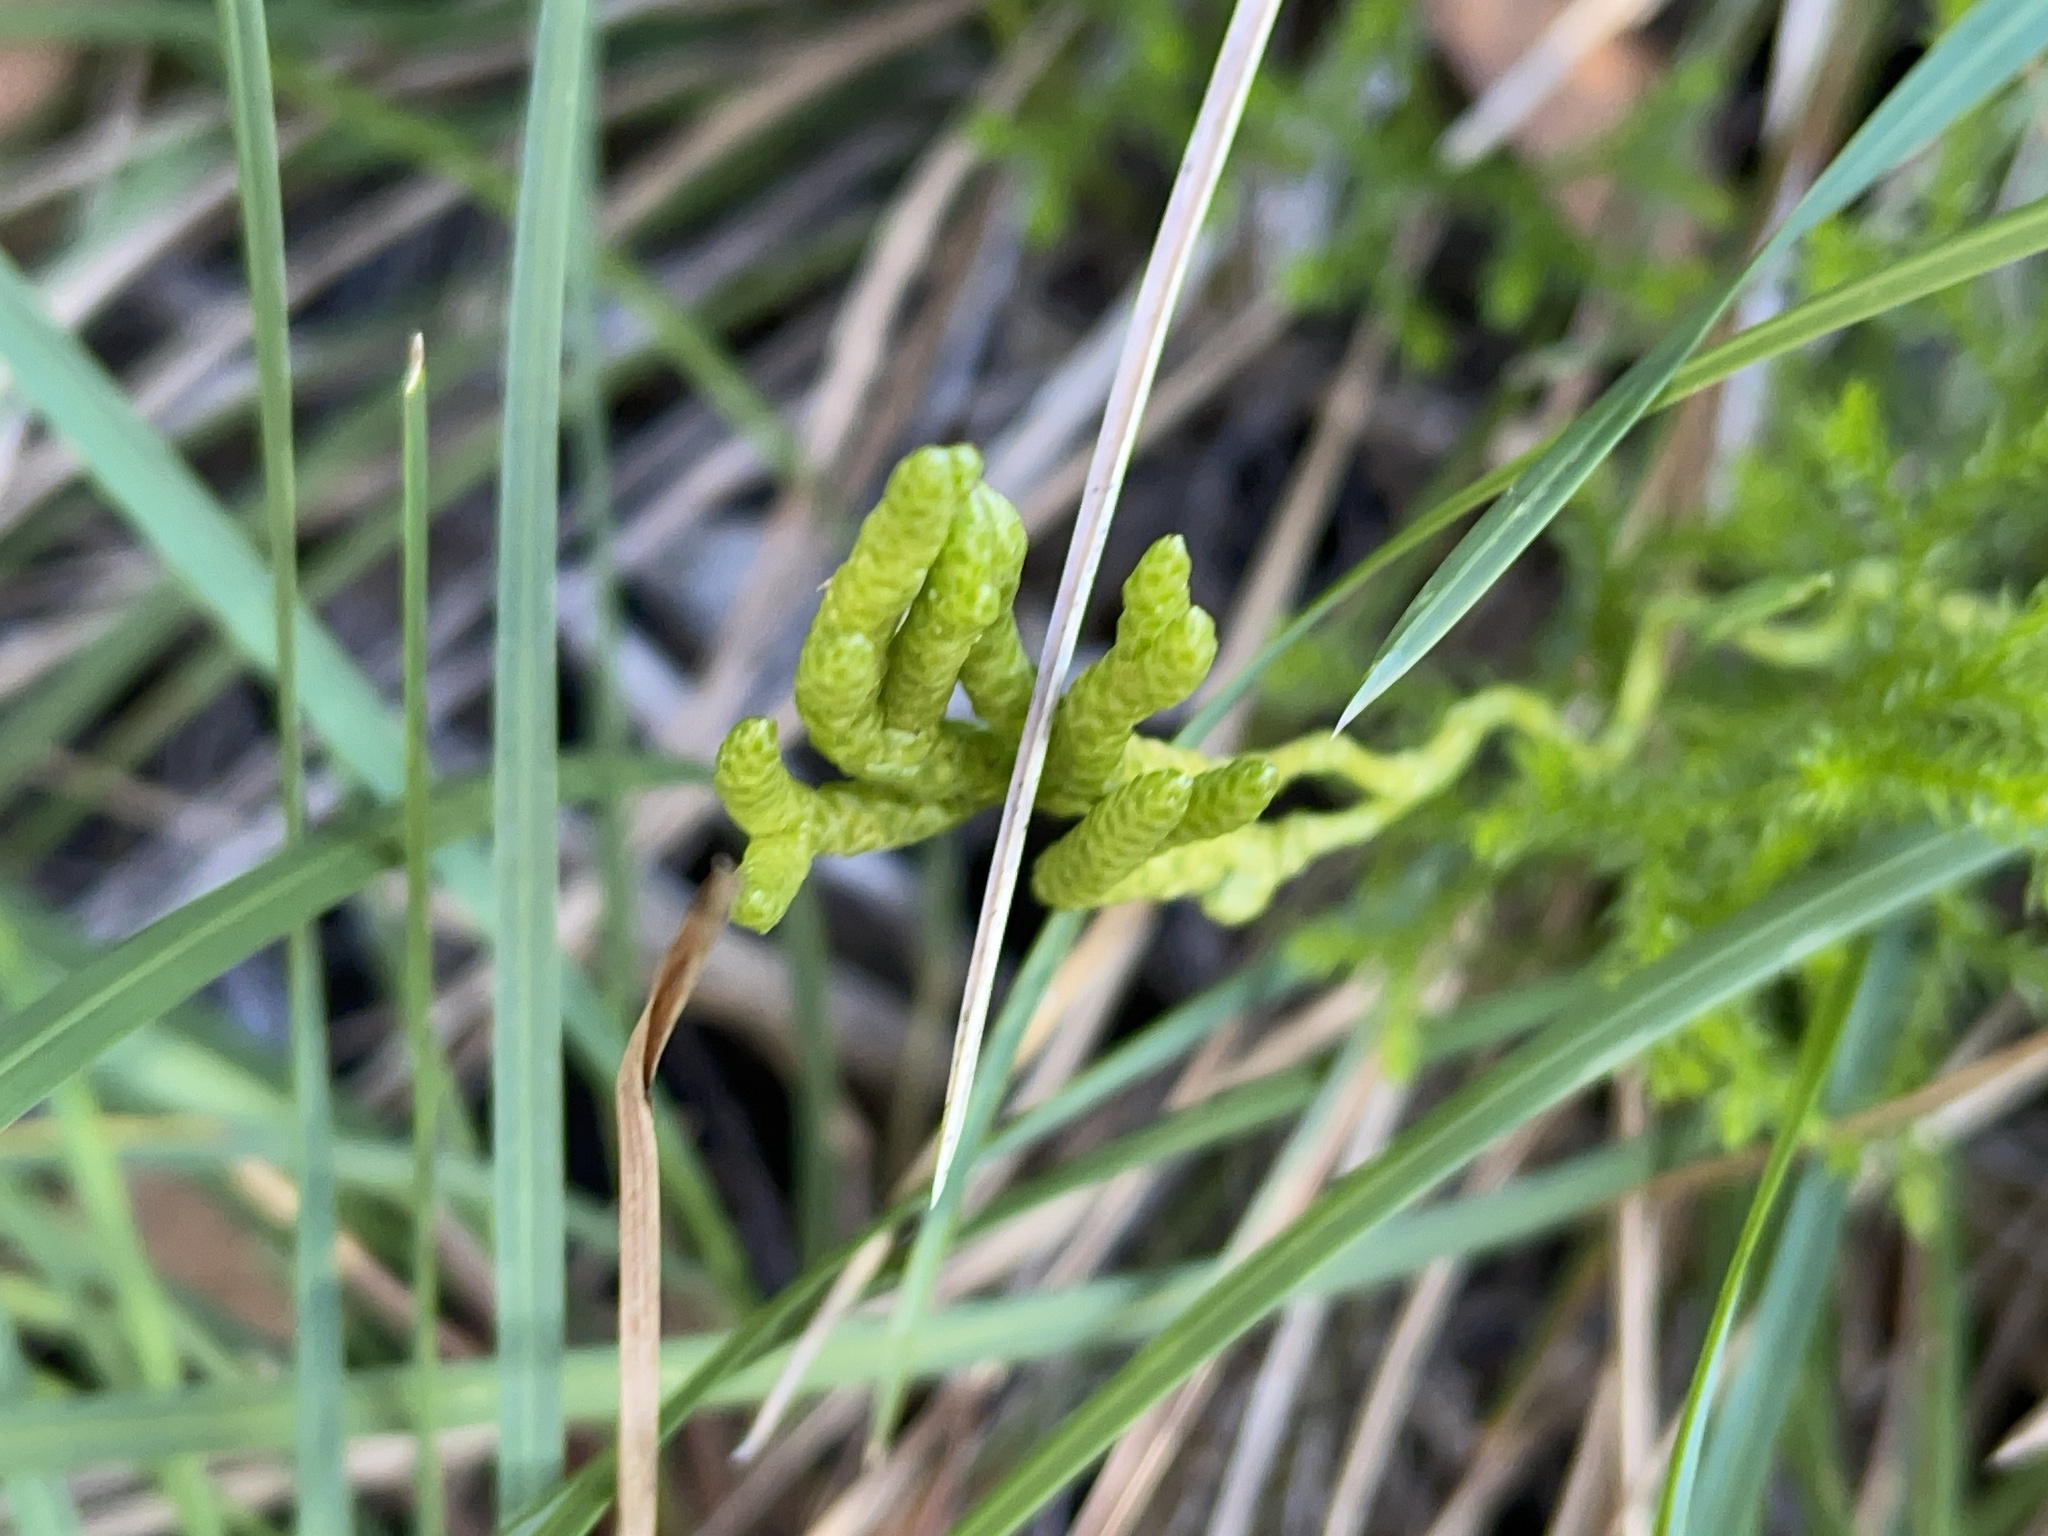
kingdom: Plantae
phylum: Tracheophyta
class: Lycopodiopsida
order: Lycopodiales
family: Lycopodiaceae
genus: Austrolycopodium
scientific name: Austrolycopodium fastigiatum
